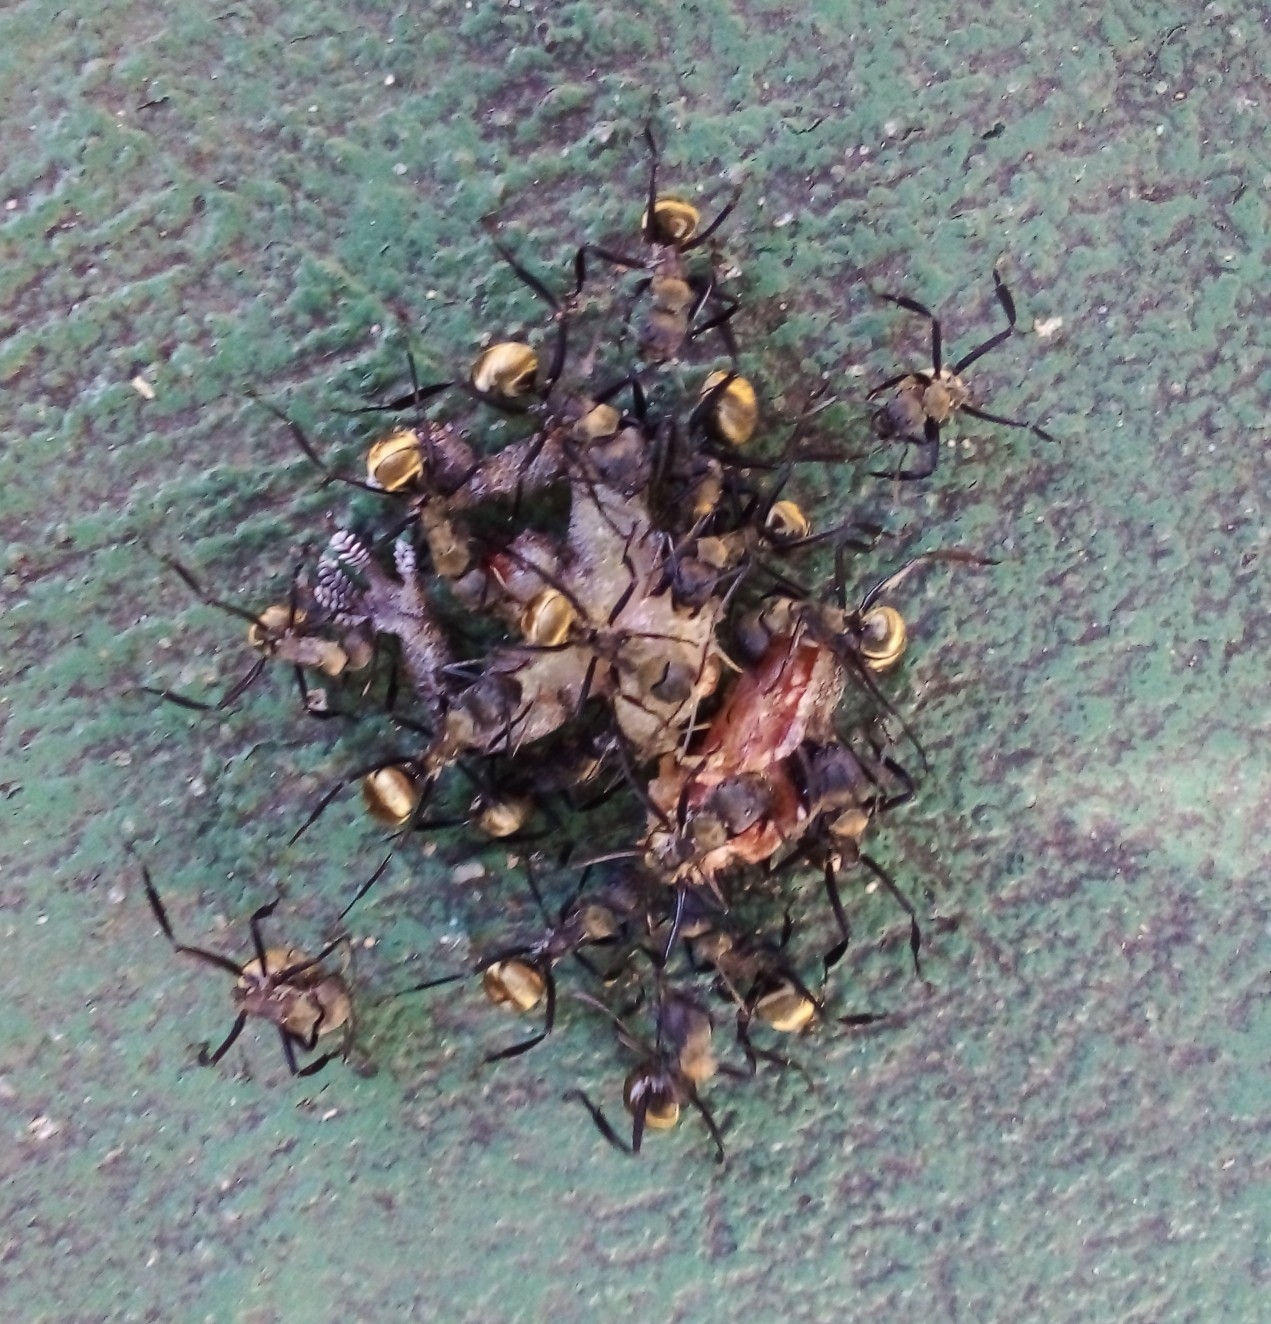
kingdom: Animalia
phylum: Arthropoda
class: Insecta
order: Hymenoptera
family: Formicidae
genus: Camponotus
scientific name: Camponotus sericeiventris
